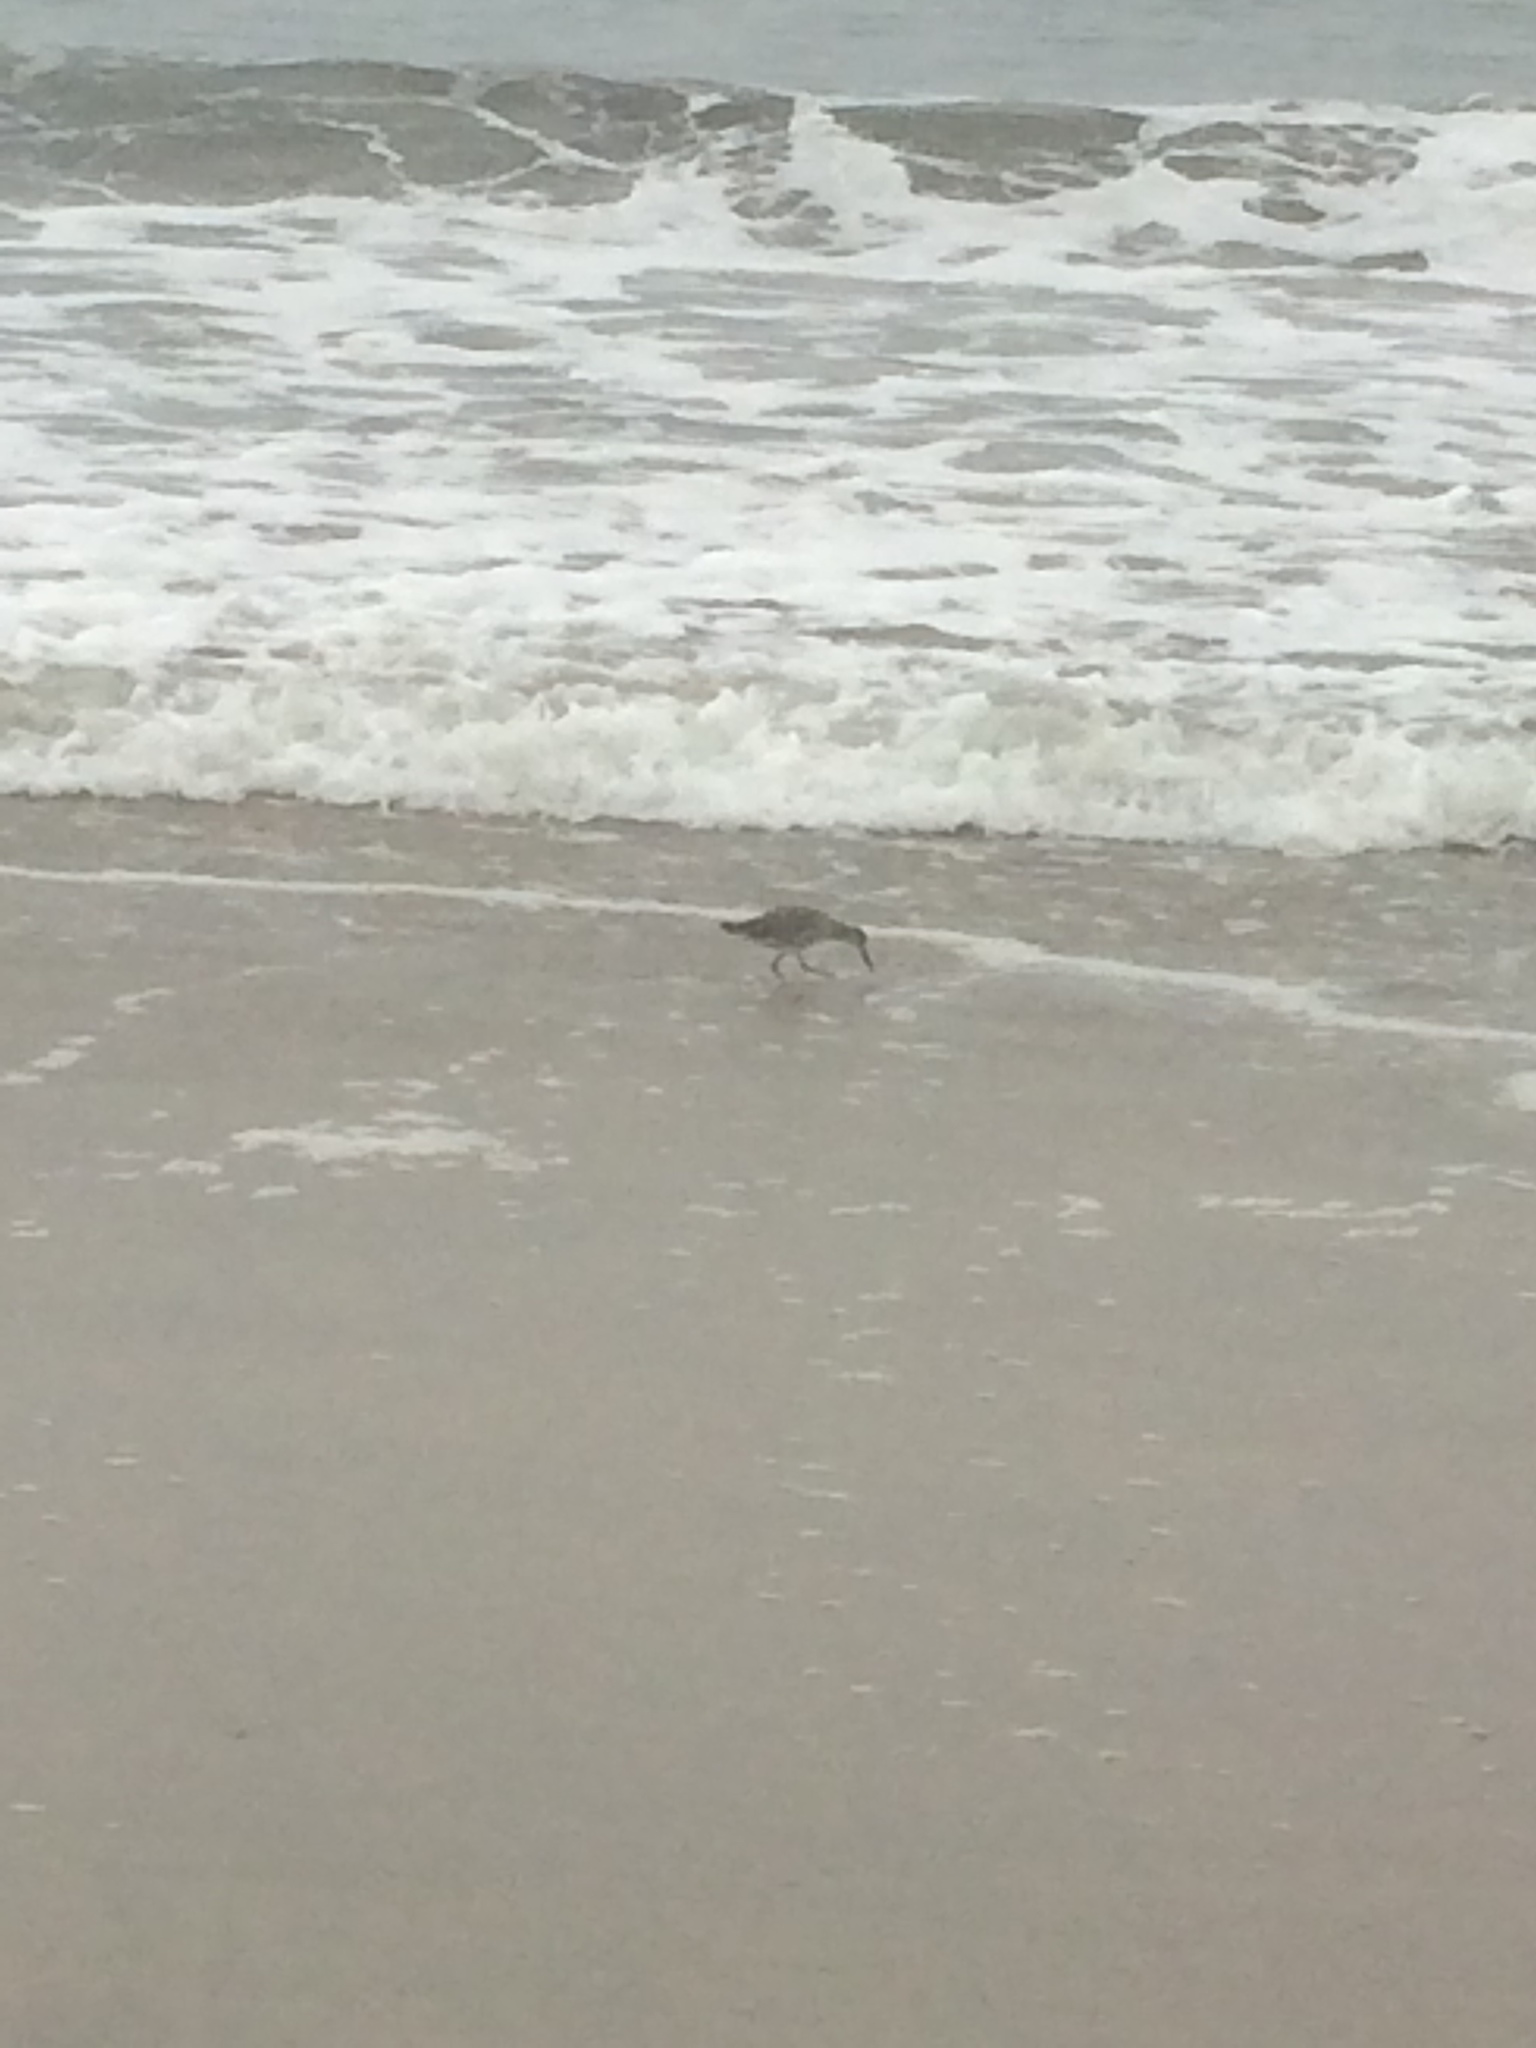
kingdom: Animalia
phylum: Chordata
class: Aves
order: Charadriiformes
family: Scolopacidae
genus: Tringa
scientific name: Tringa semipalmata
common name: Willet
